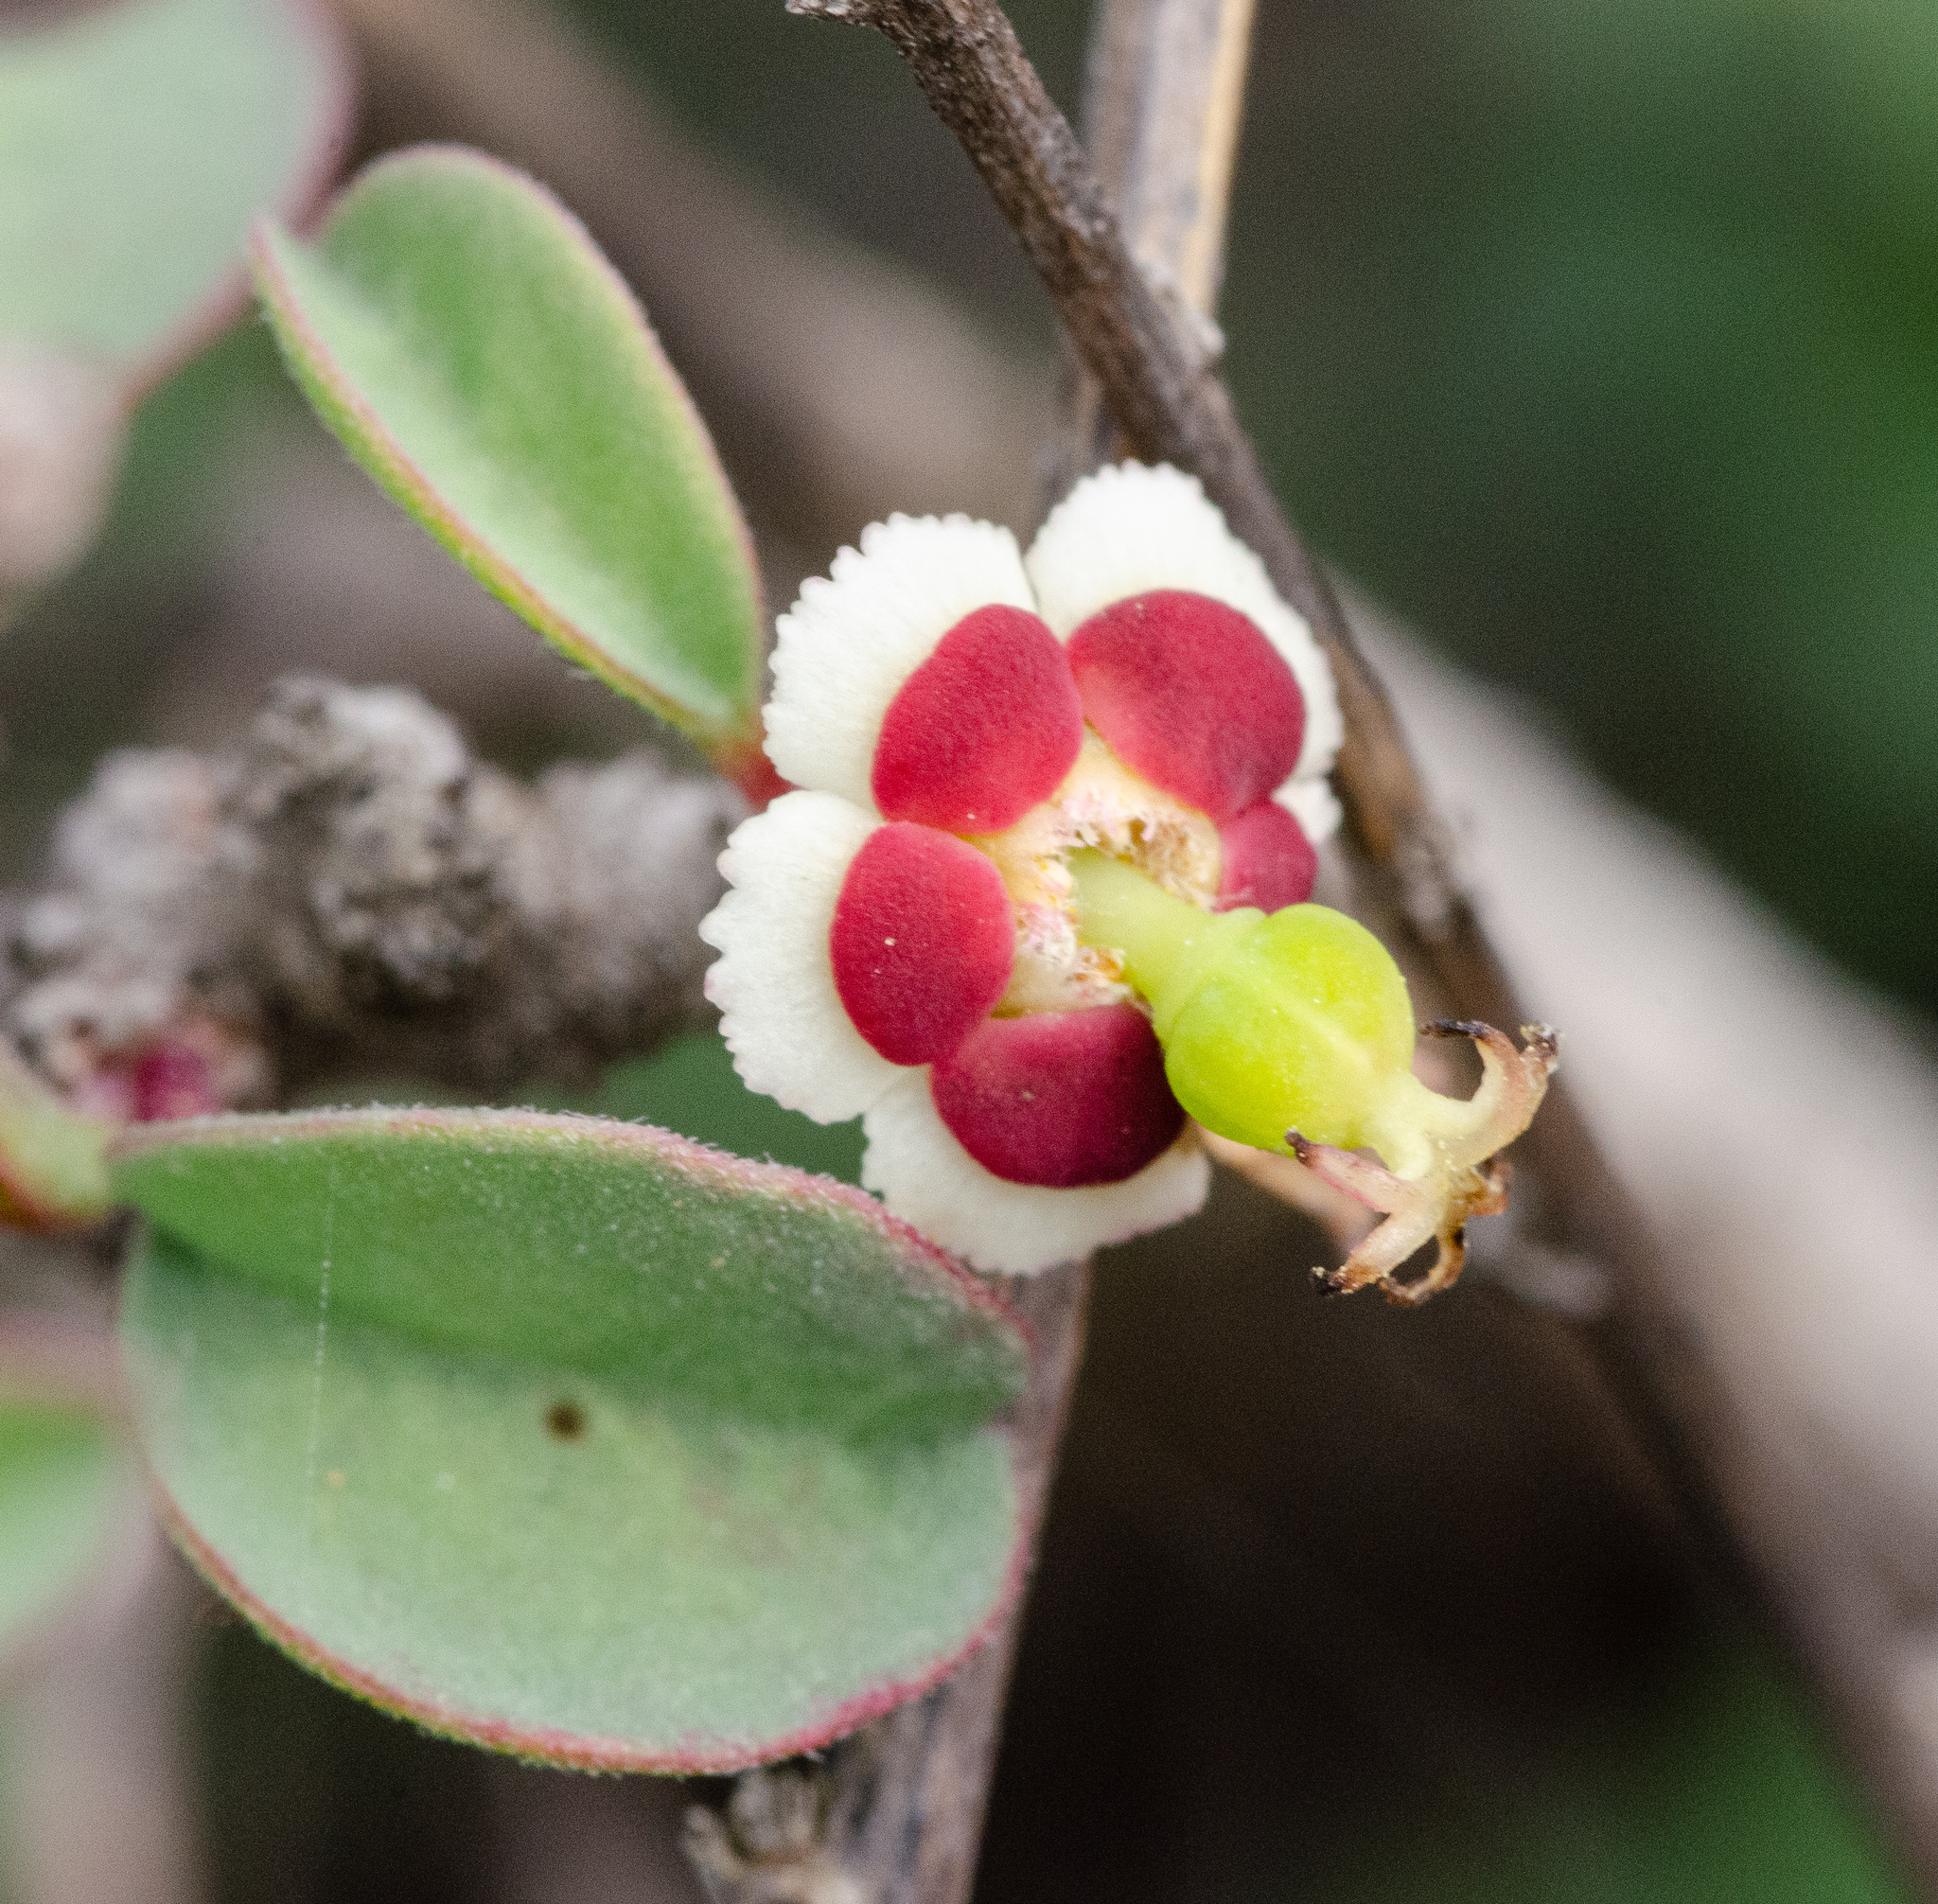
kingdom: Plantae
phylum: Tracheophyta
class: Magnoliopsida
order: Malpighiales
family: Euphorbiaceae
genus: Euphorbia
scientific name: Euphorbia misera
